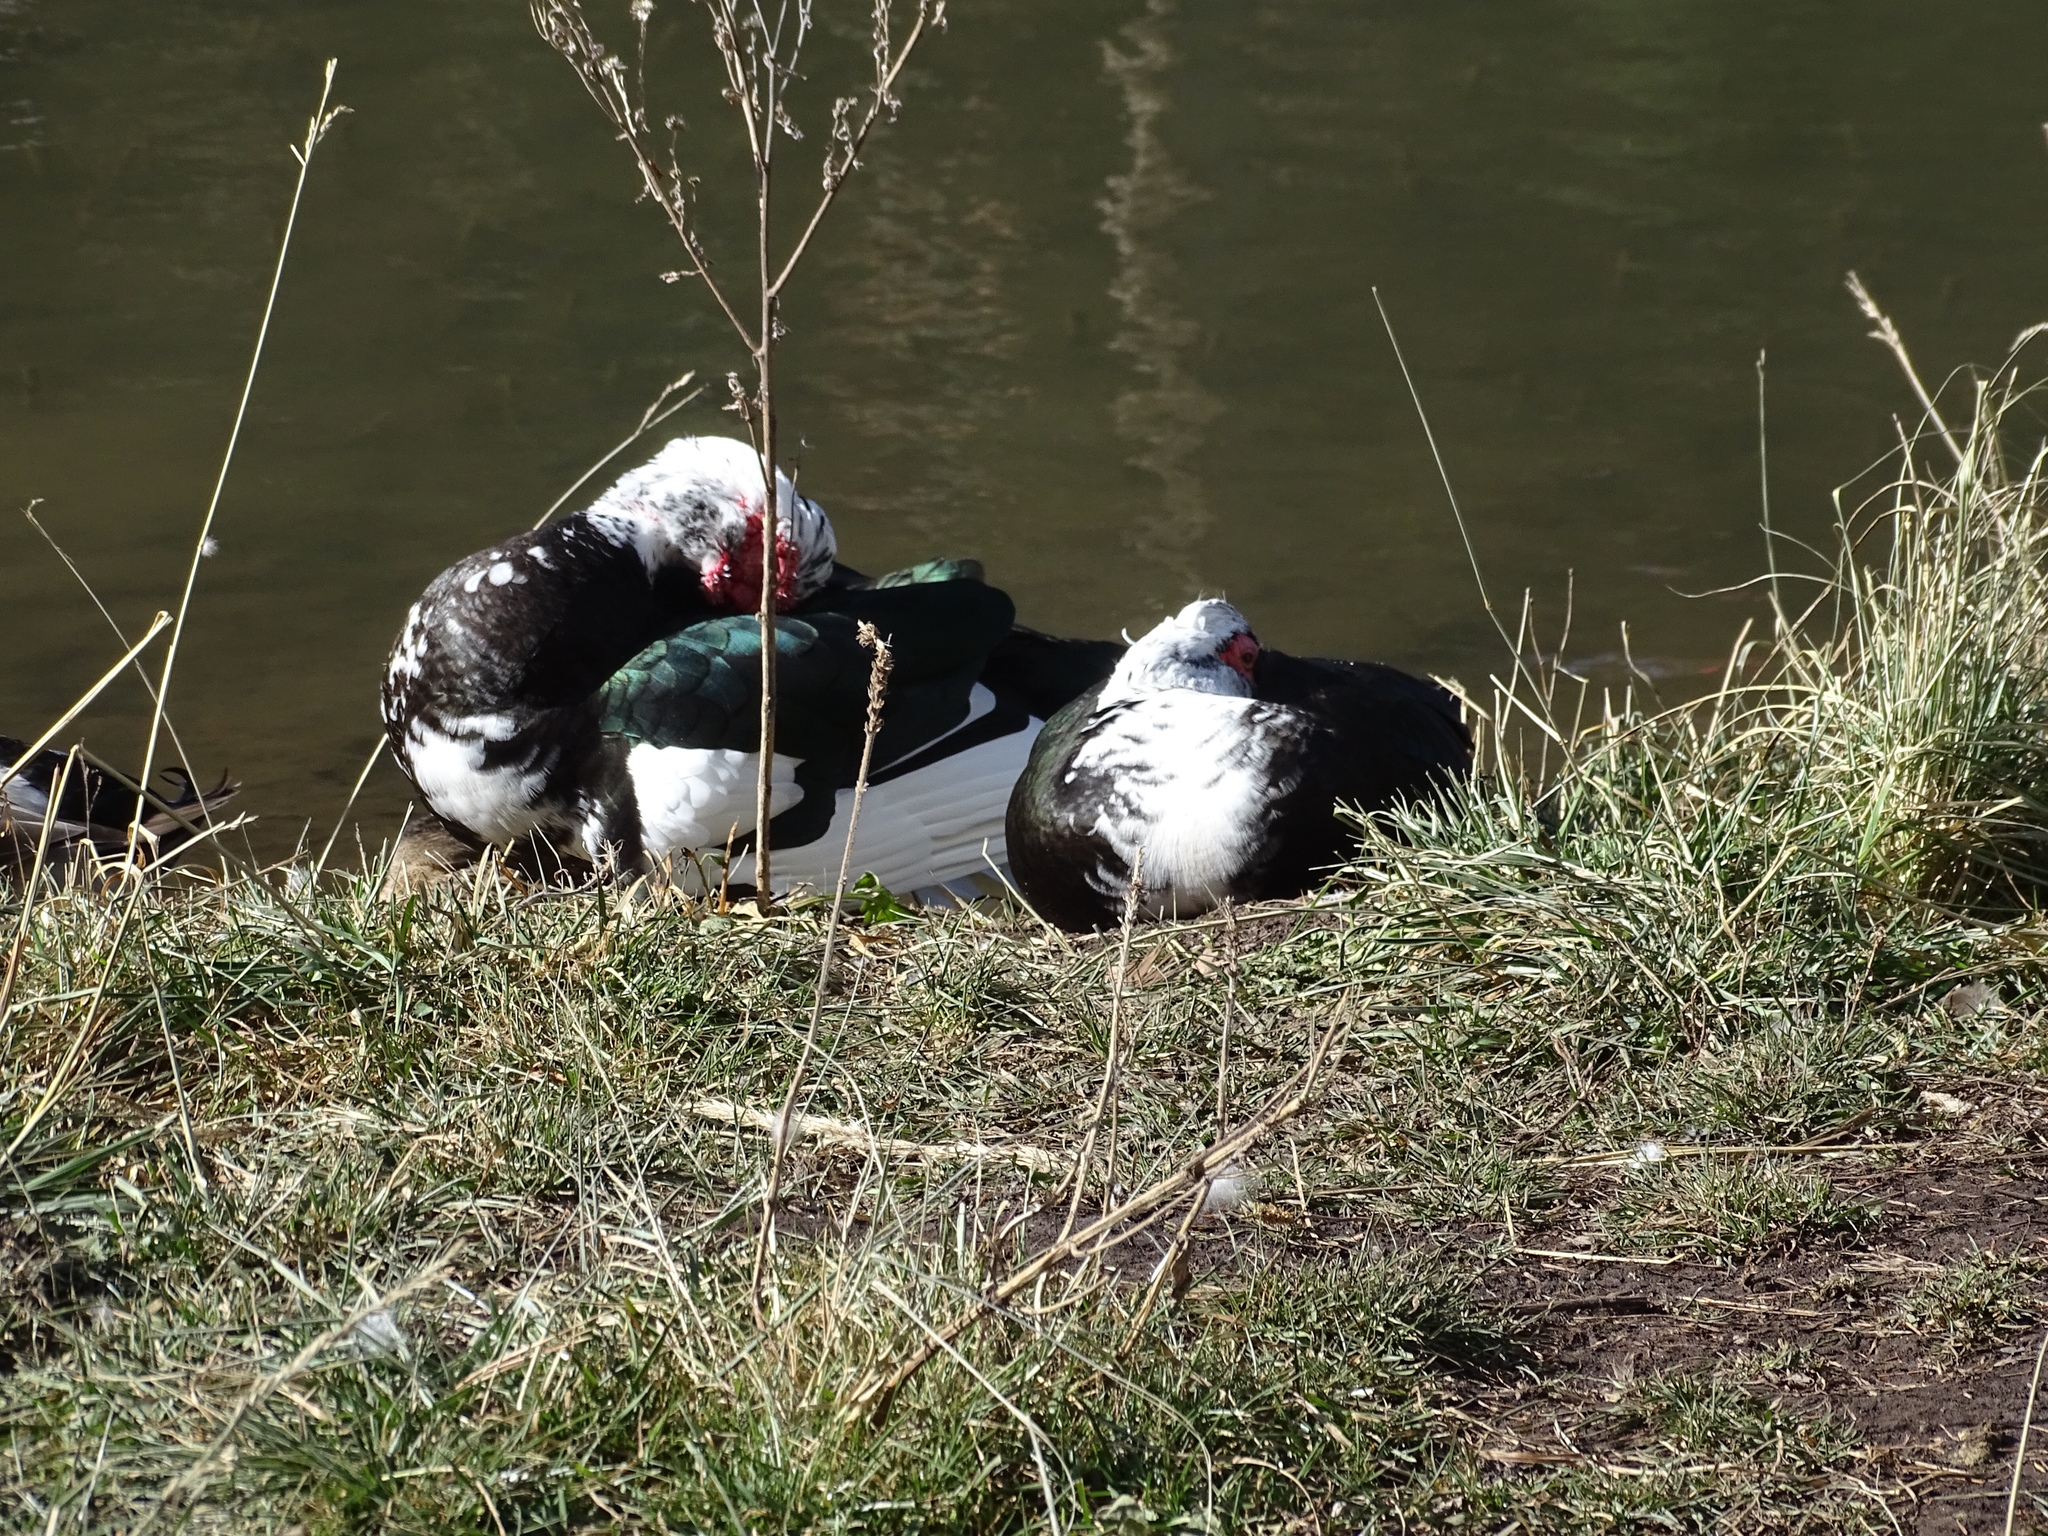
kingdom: Animalia
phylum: Chordata
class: Aves
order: Anseriformes
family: Anatidae
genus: Cairina
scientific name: Cairina moschata
